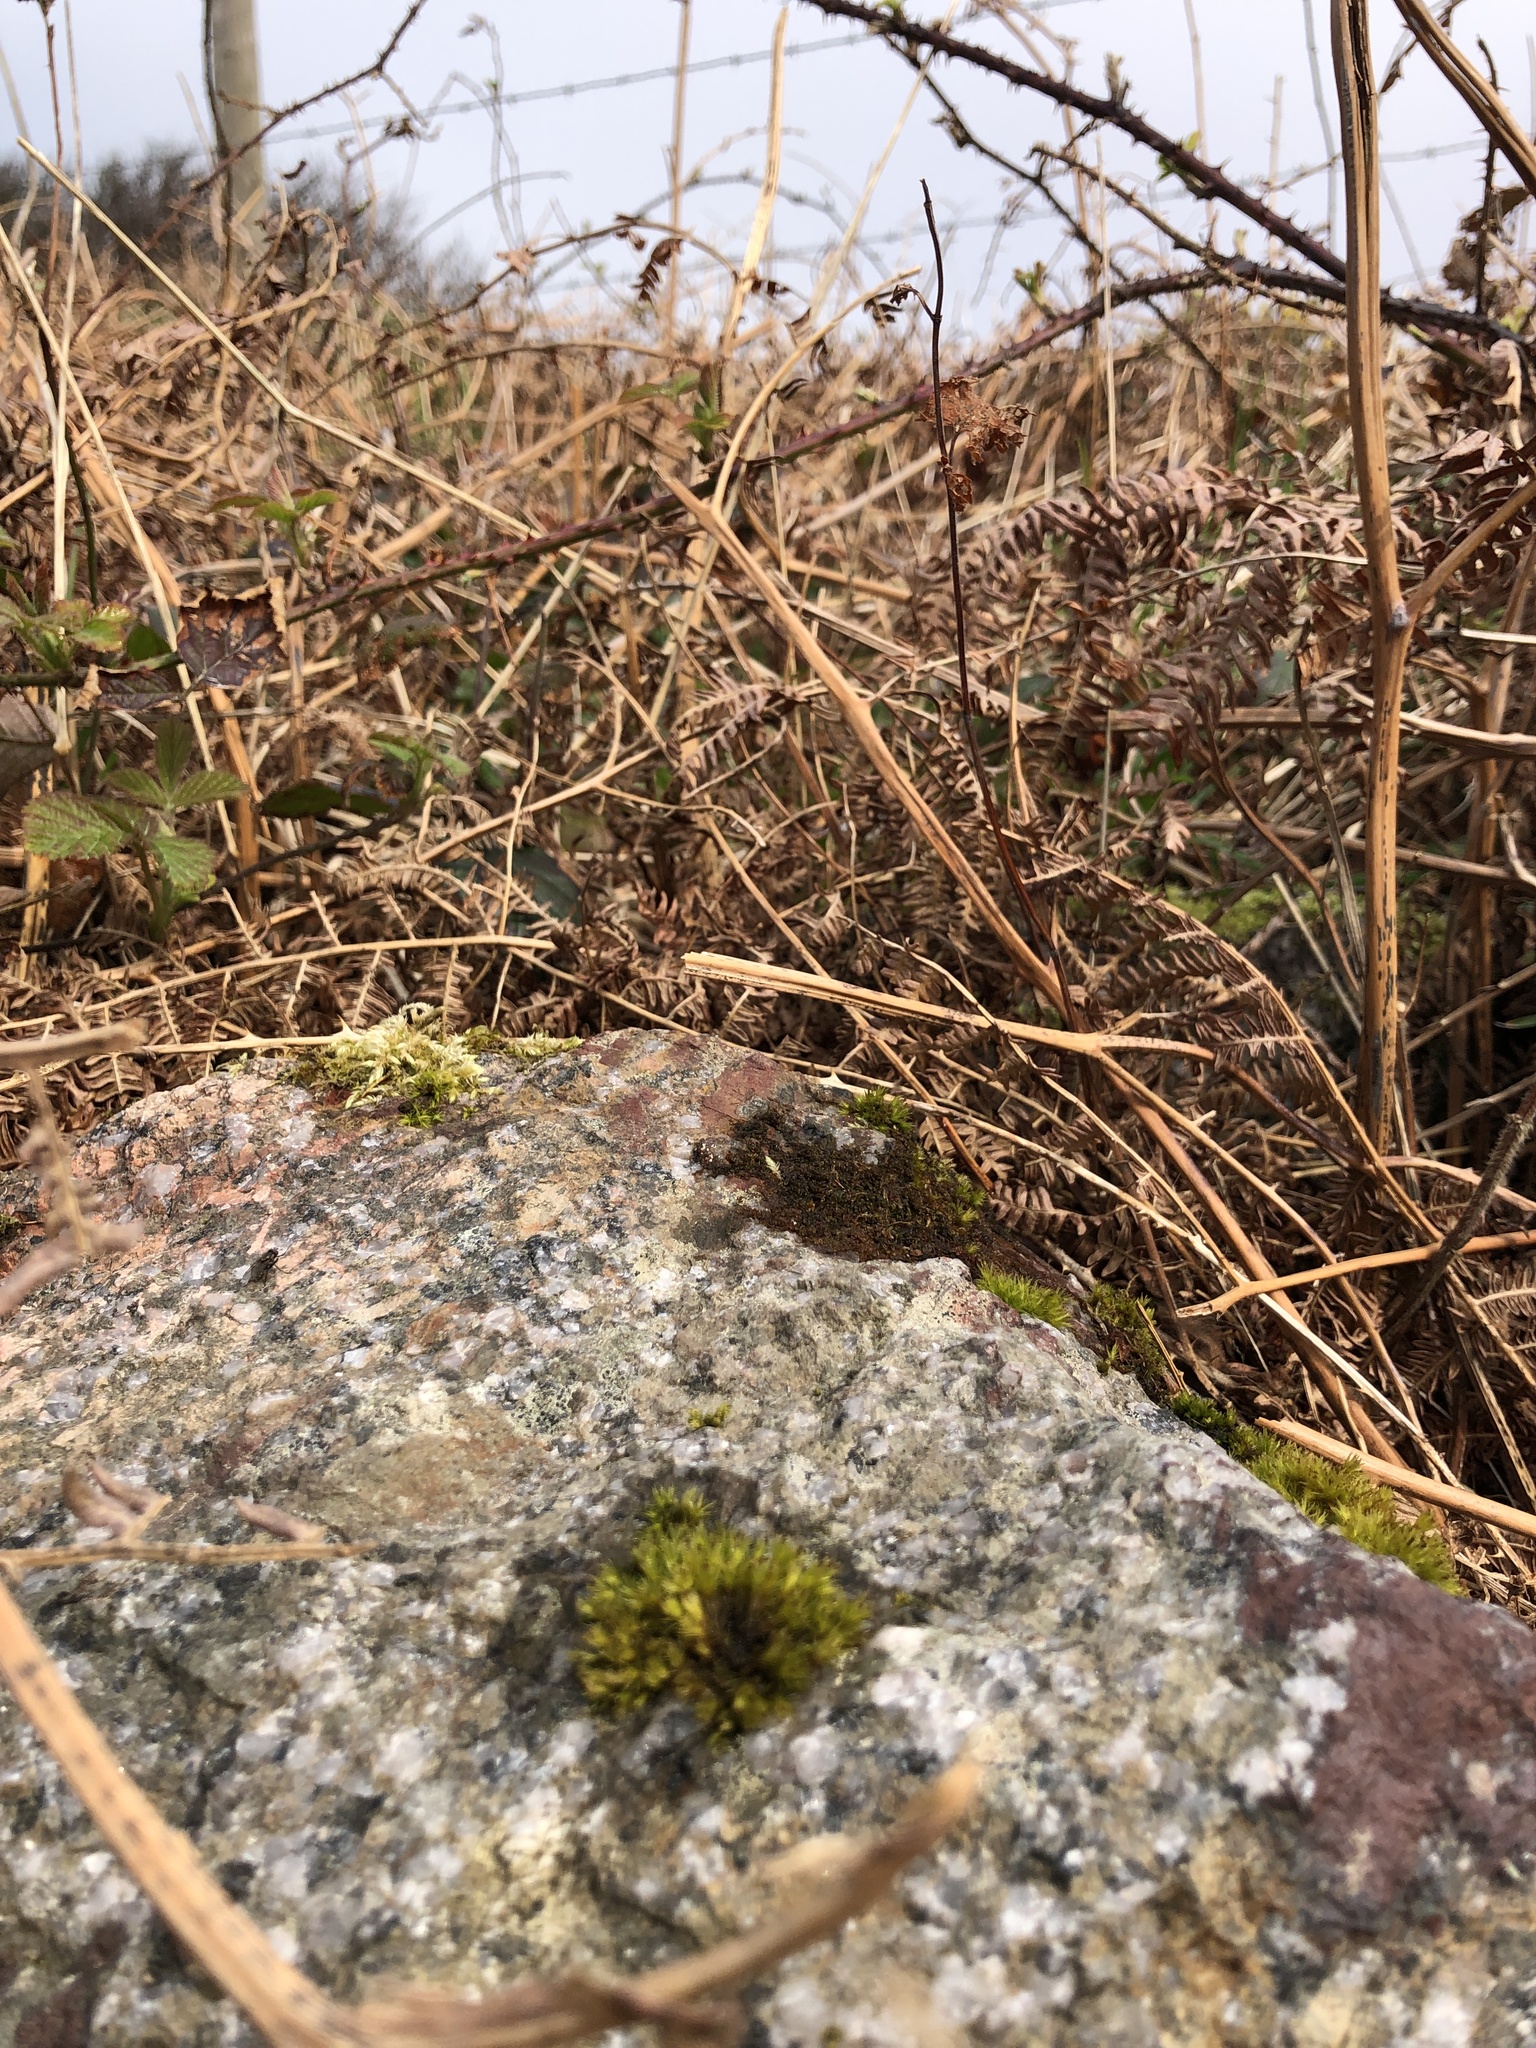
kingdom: Plantae
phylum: Bryophyta
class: Bryopsida
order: Orthotrichales
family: Orthotrichaceae
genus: Plenogemma
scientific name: Plenogemma phyllantha
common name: Frizzled pincushion
